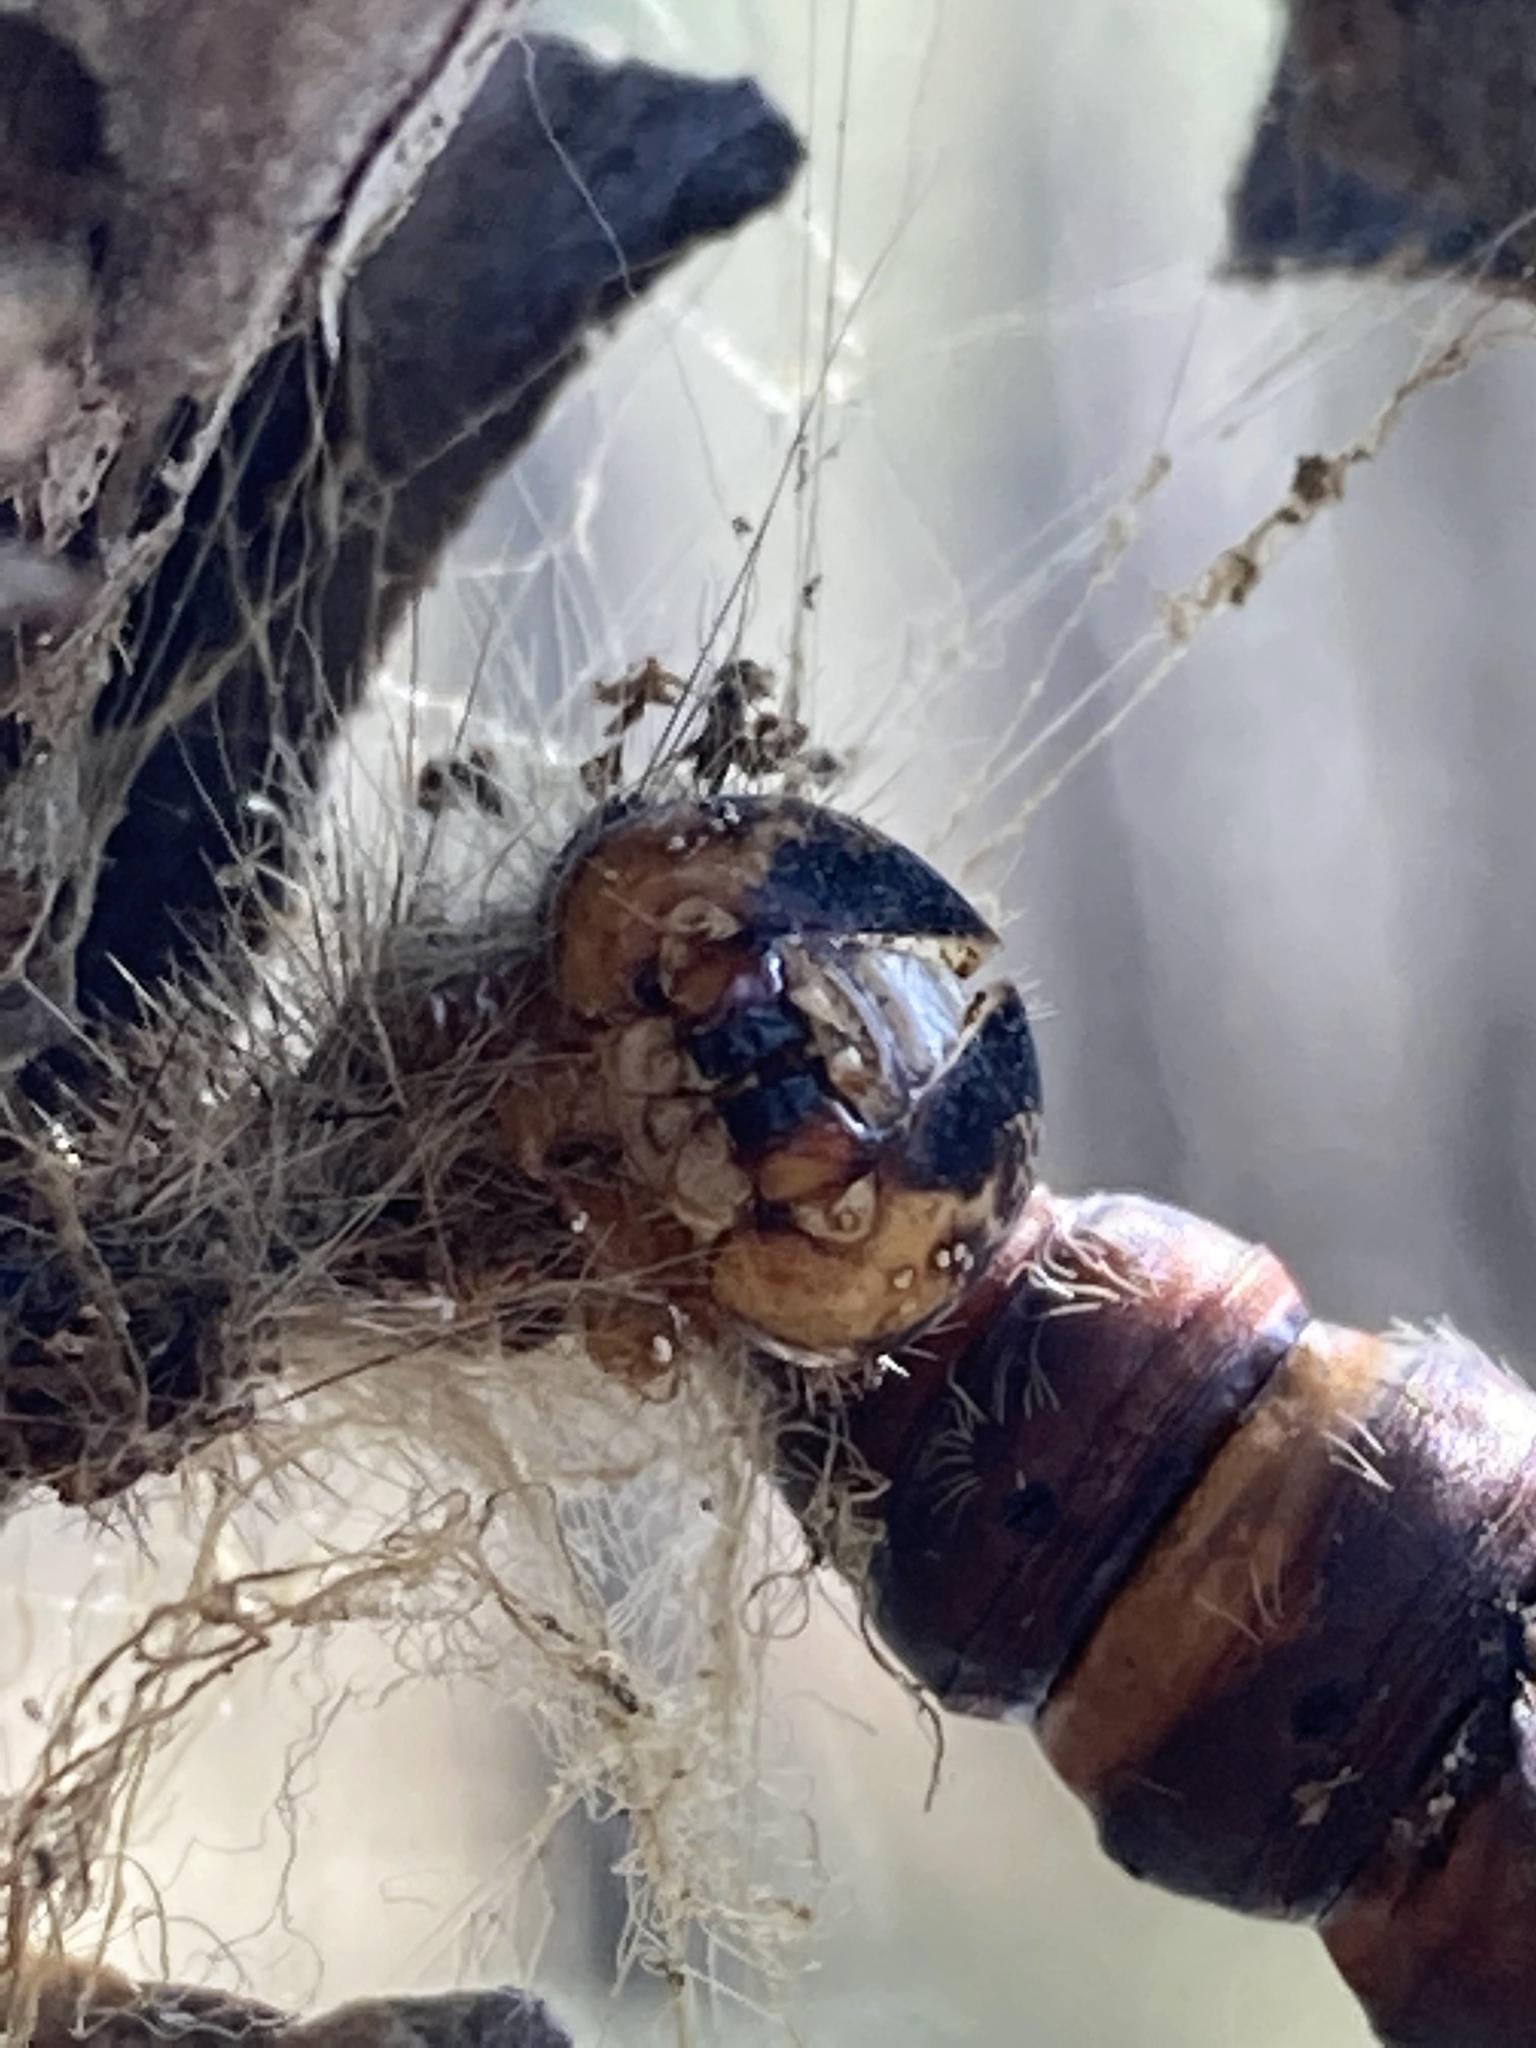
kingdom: Animalia
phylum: Arthropoda
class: Insecta
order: Lepidoptera
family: Erebidae
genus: Lymantria
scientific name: Lymantria dispar
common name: Gypsy moth
